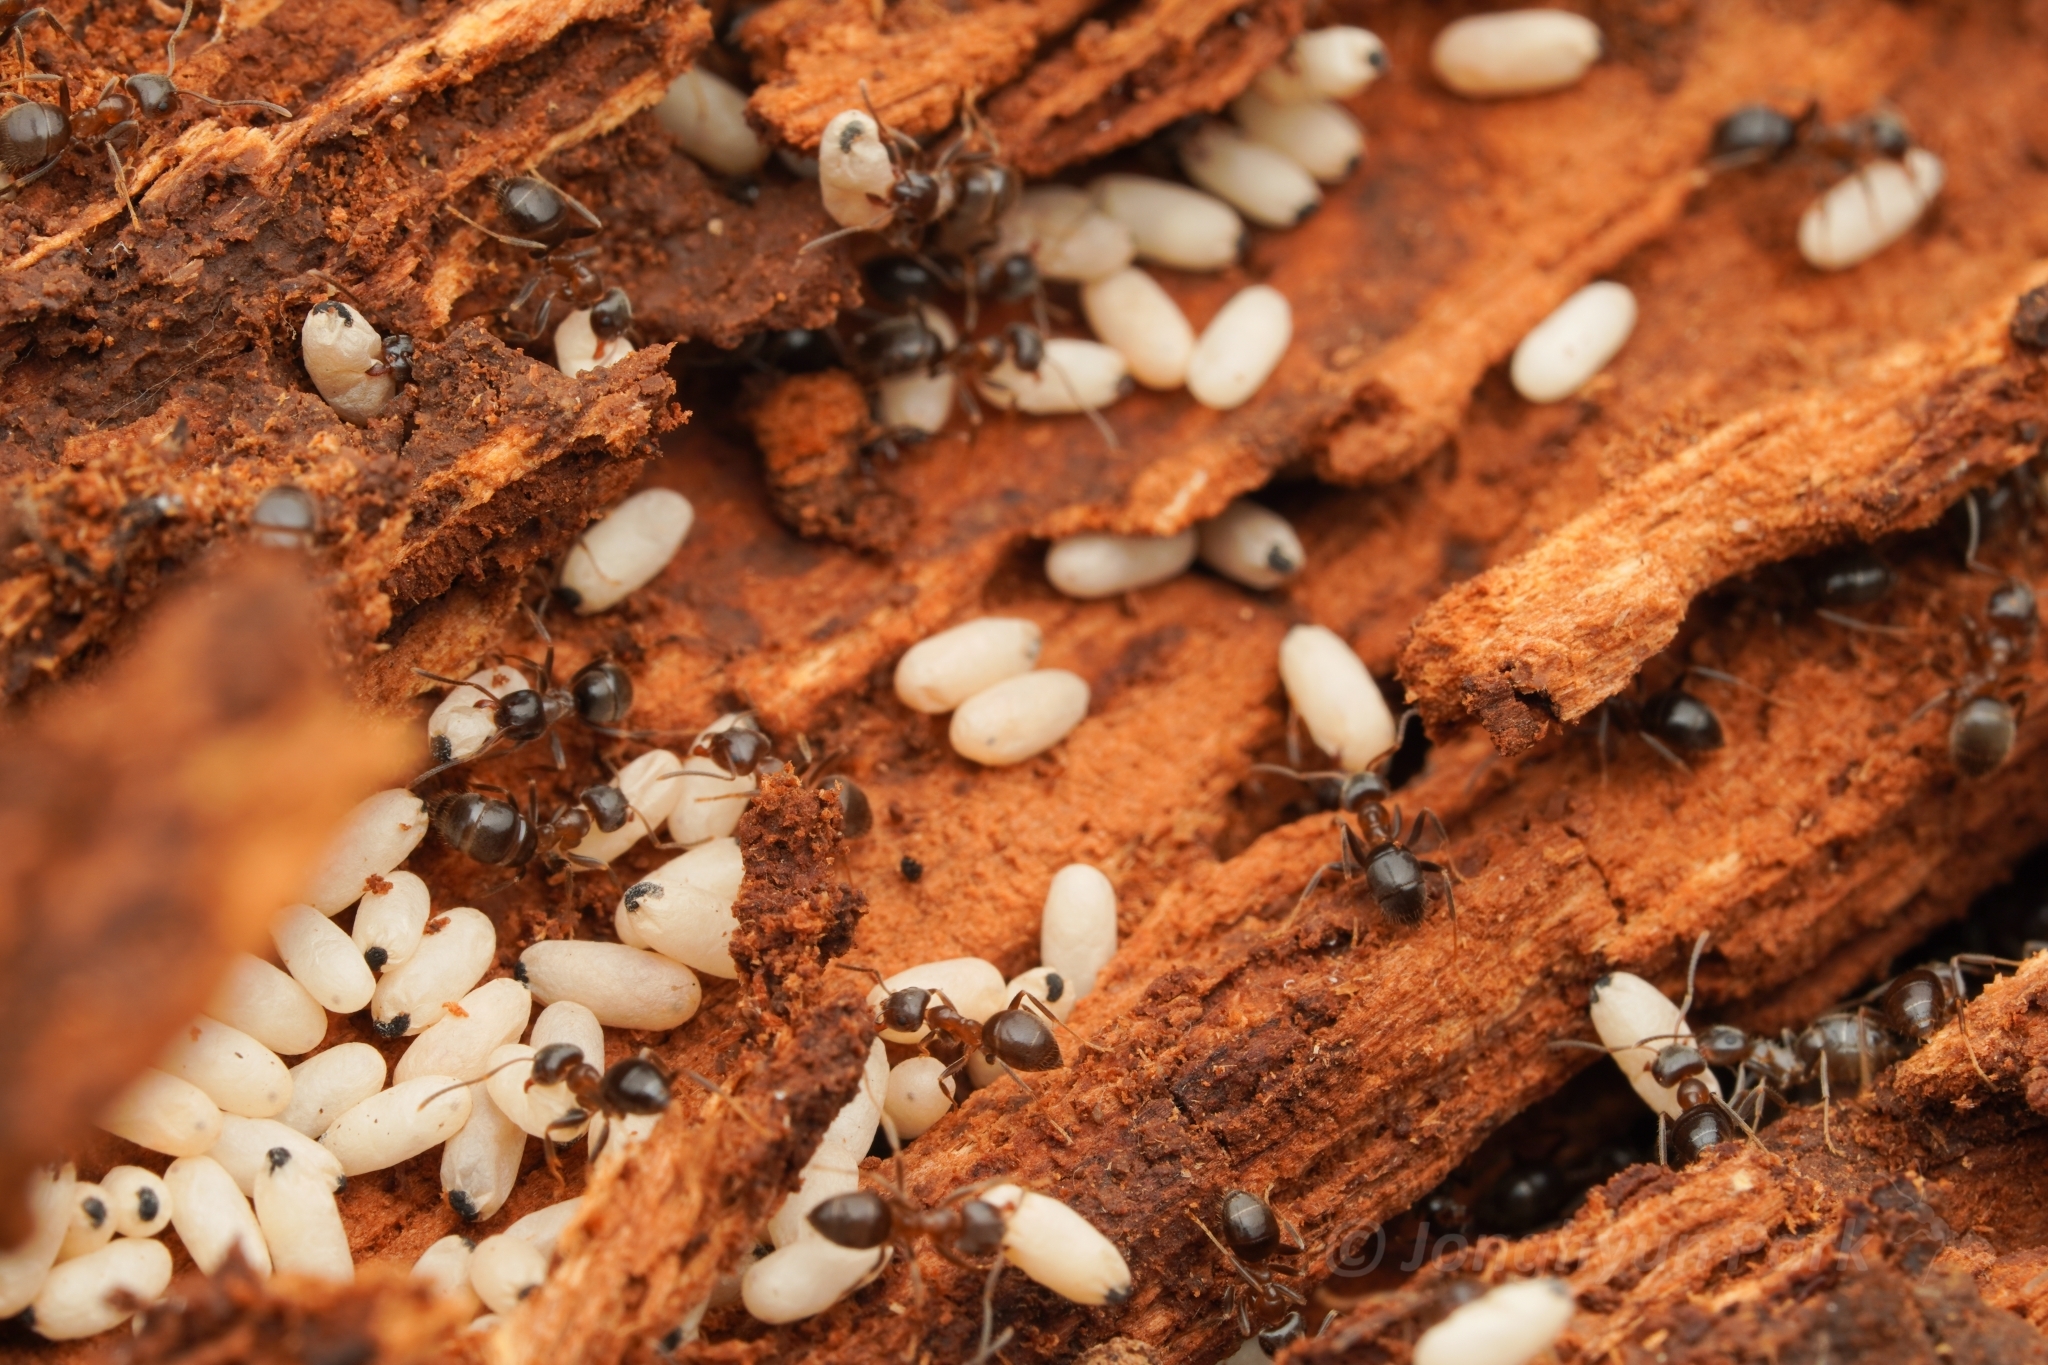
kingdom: Animalia
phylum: Arthropoda
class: Insecta
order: Hymenoptera
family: Formicidae
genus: Lasius
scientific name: Lasius hayashi
